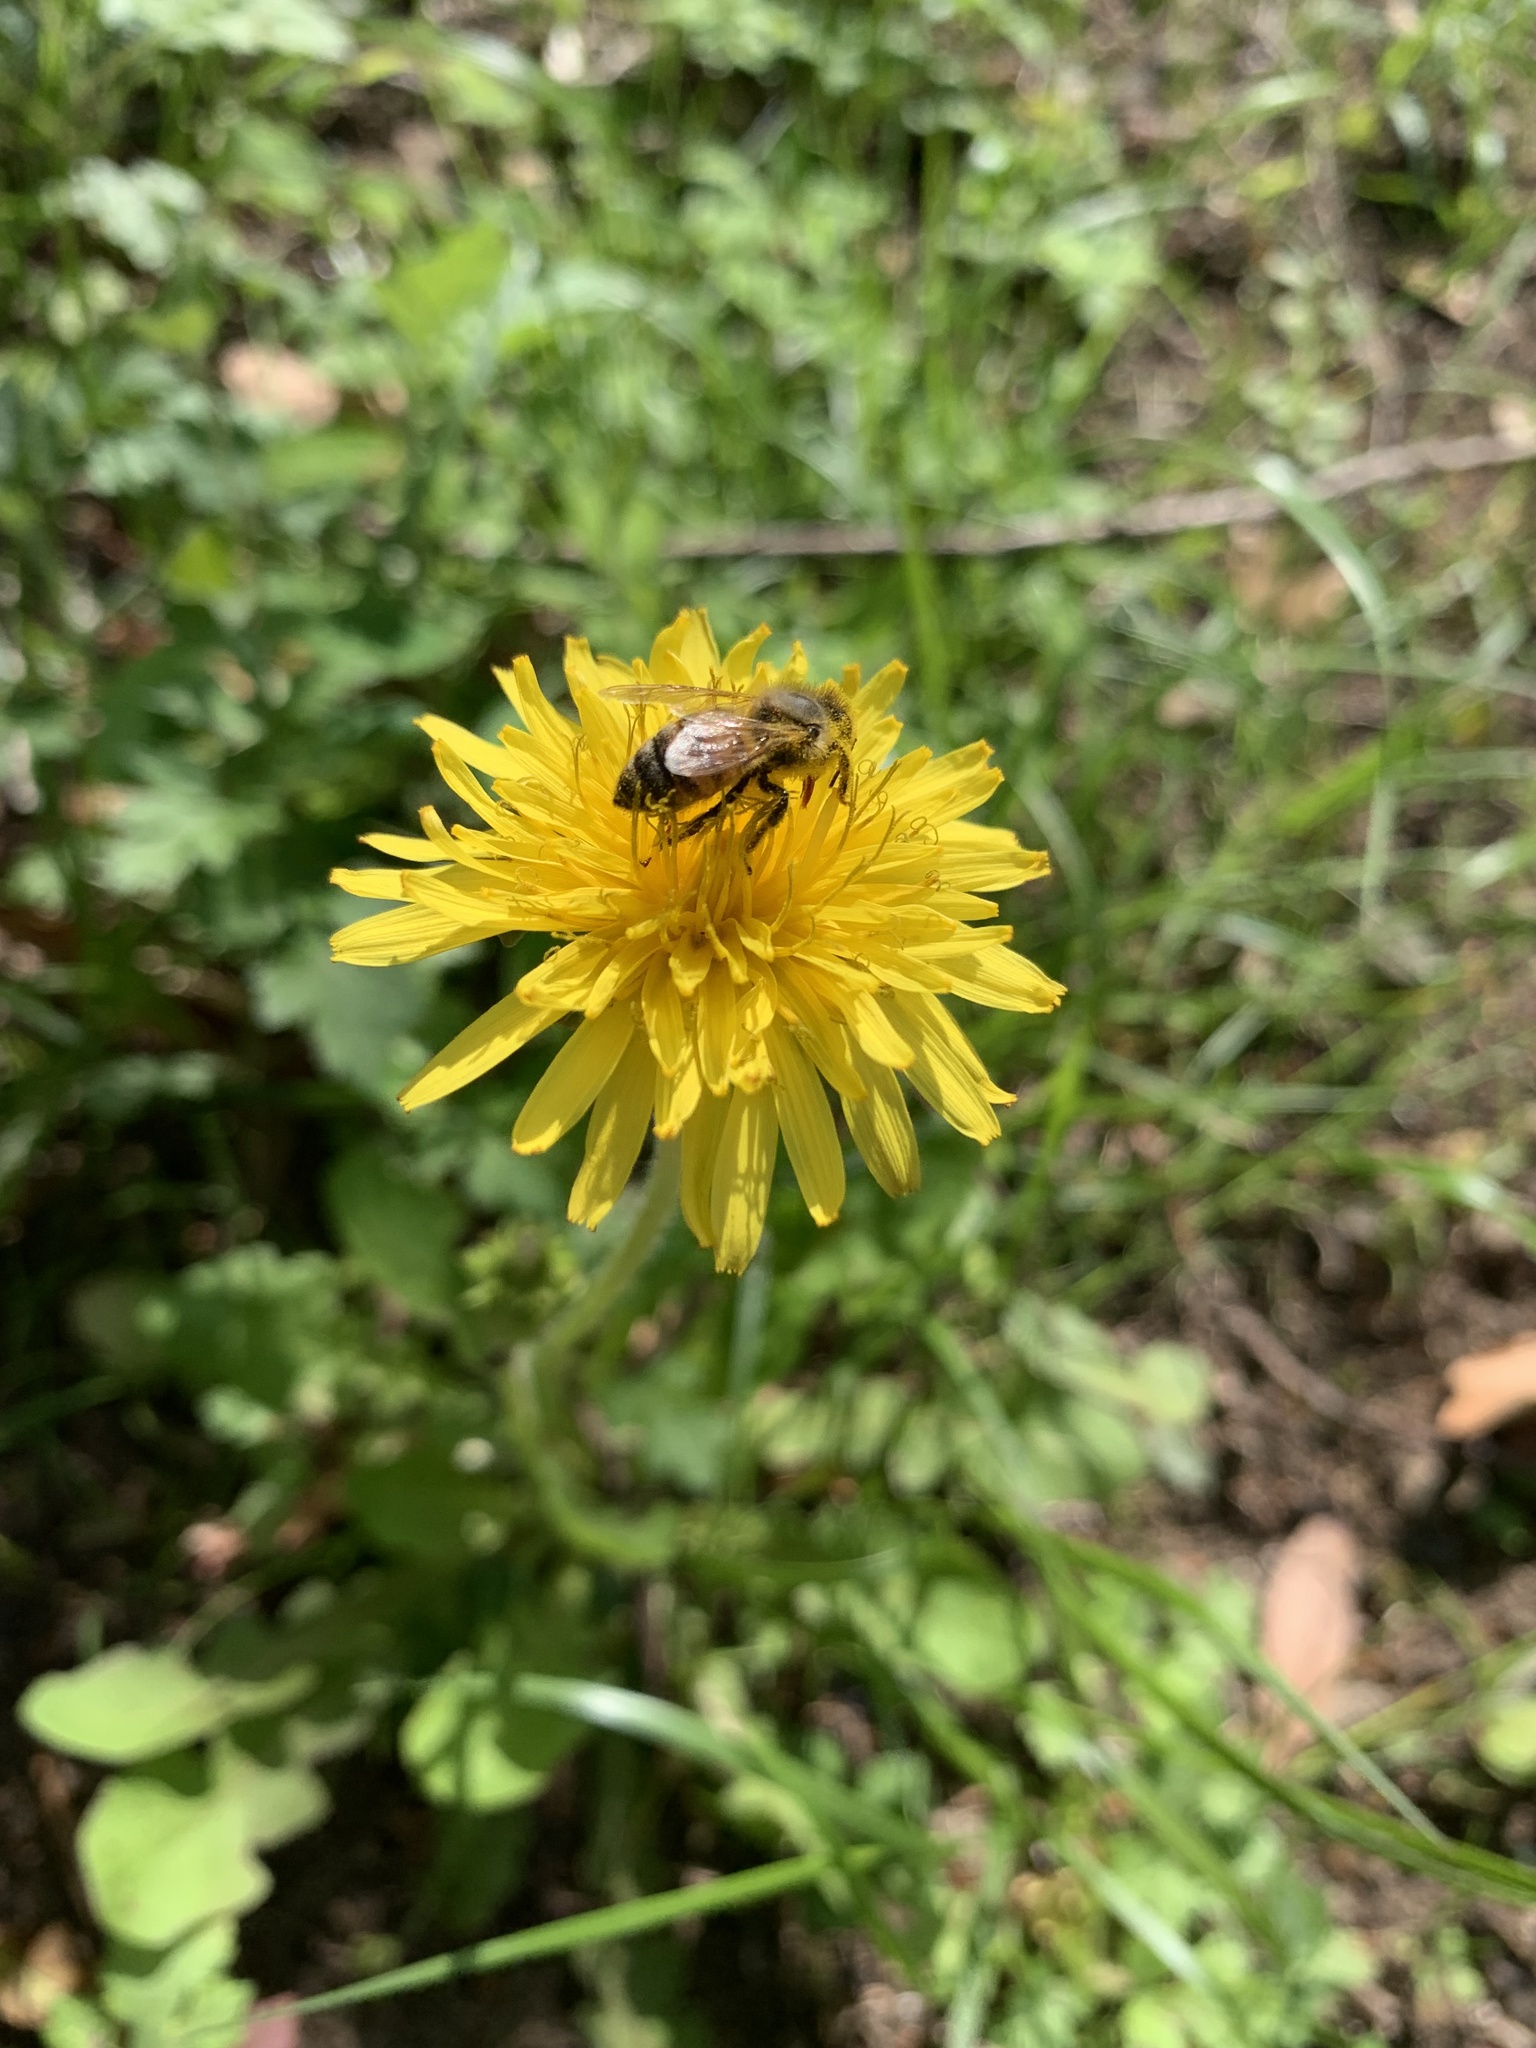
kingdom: Animalia
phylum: Arthropoda
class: Insecta
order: Hymenoptera
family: Apidae
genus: Apis
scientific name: Apis mellifera
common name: Honey bee
